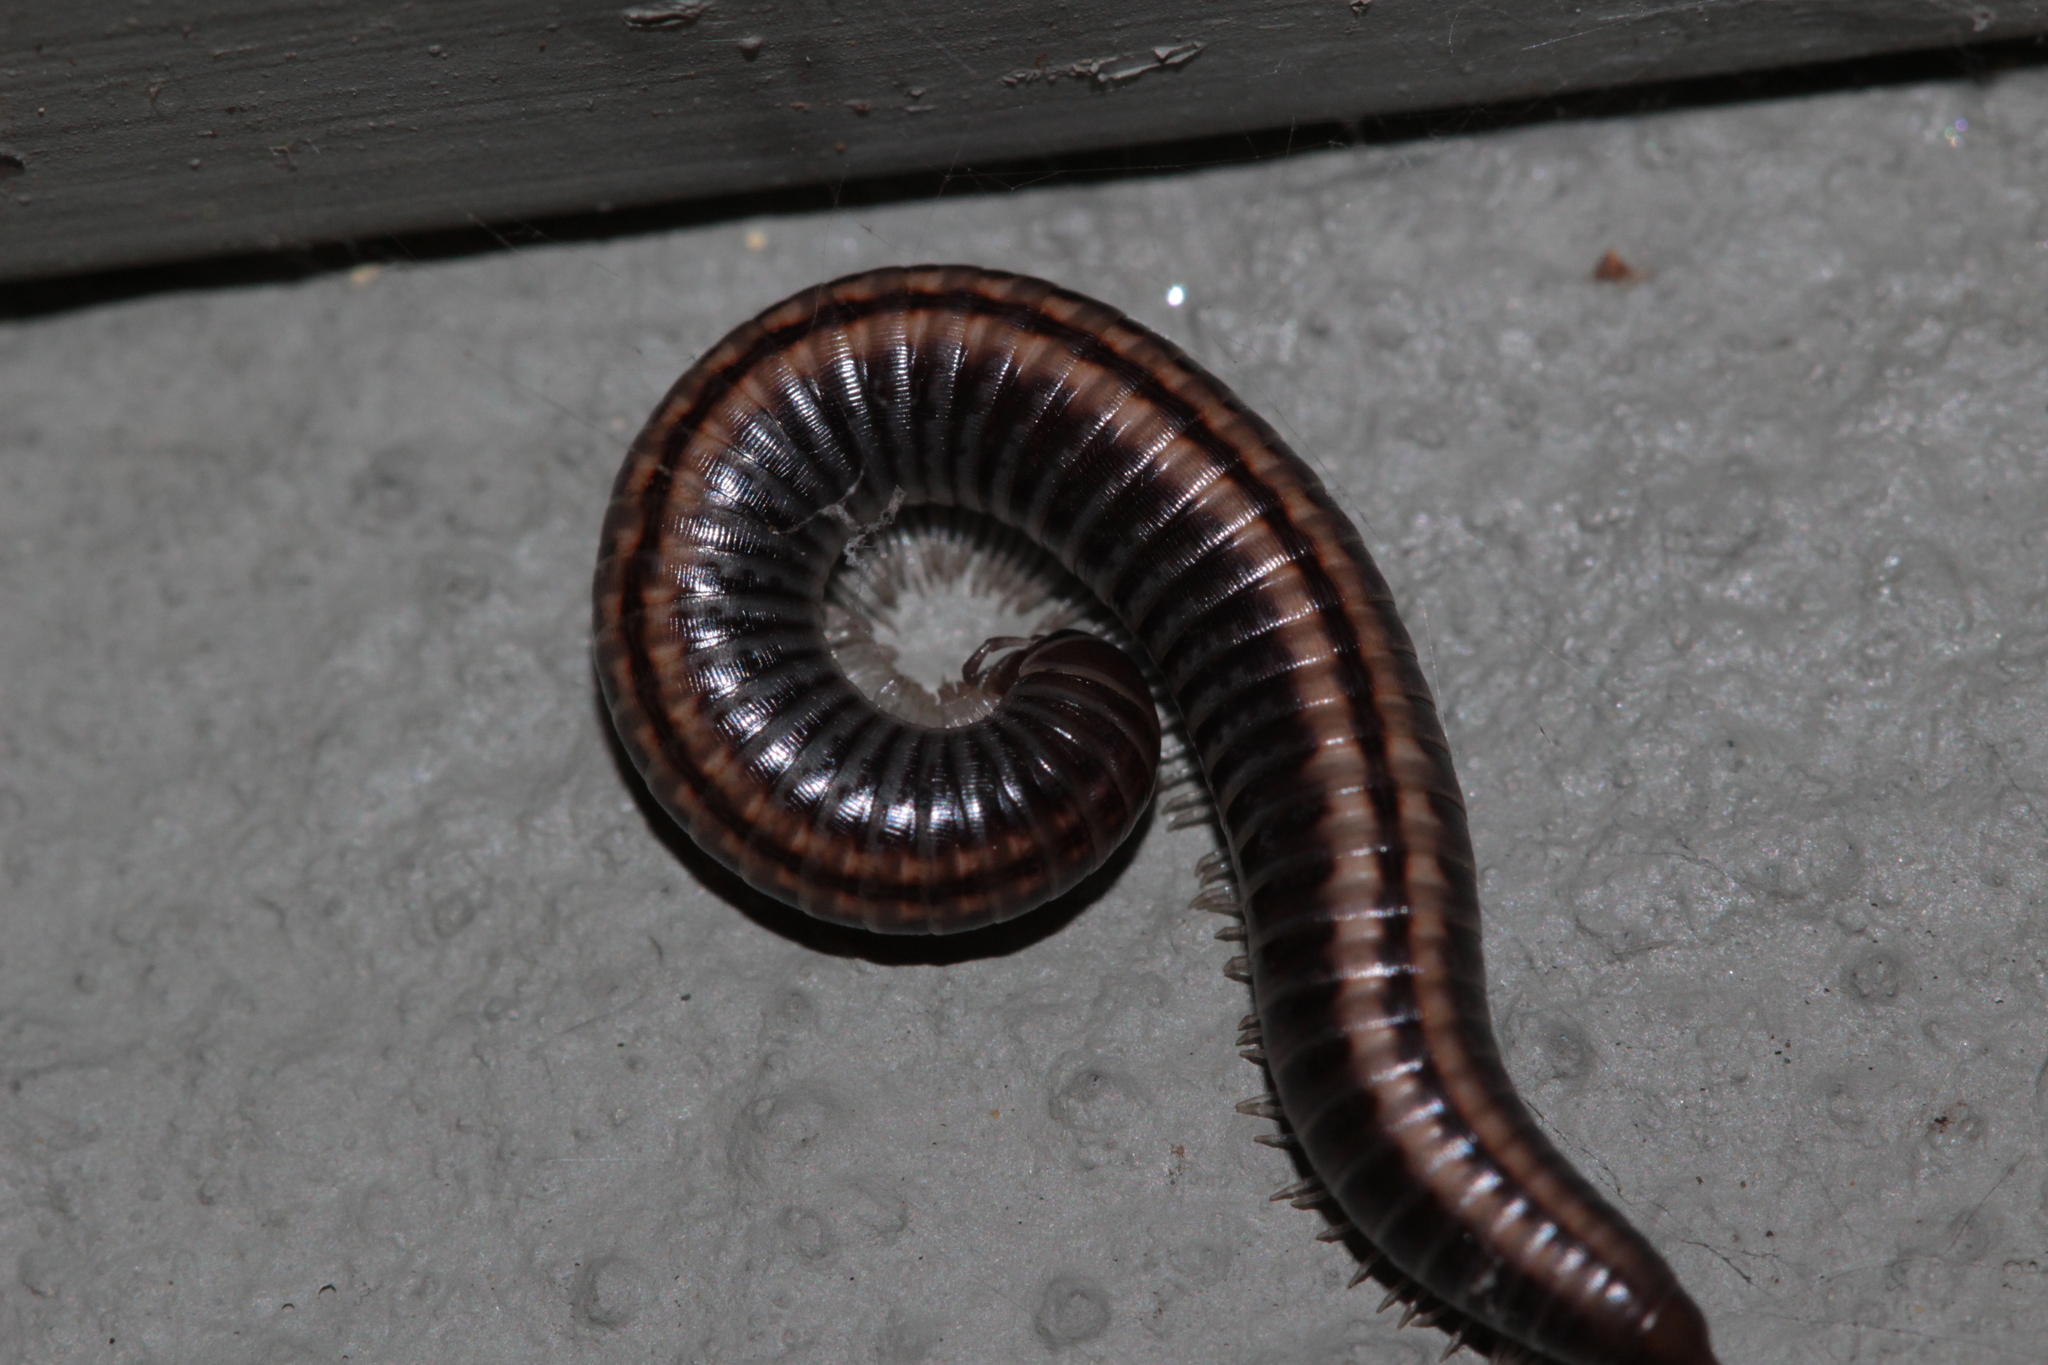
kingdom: Animalia
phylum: Arthropoda
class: Diplopoda
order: Julida
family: Julidae
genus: Ommatoiulus
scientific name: Ommatoiulus sabulosus
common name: Striped millipede
